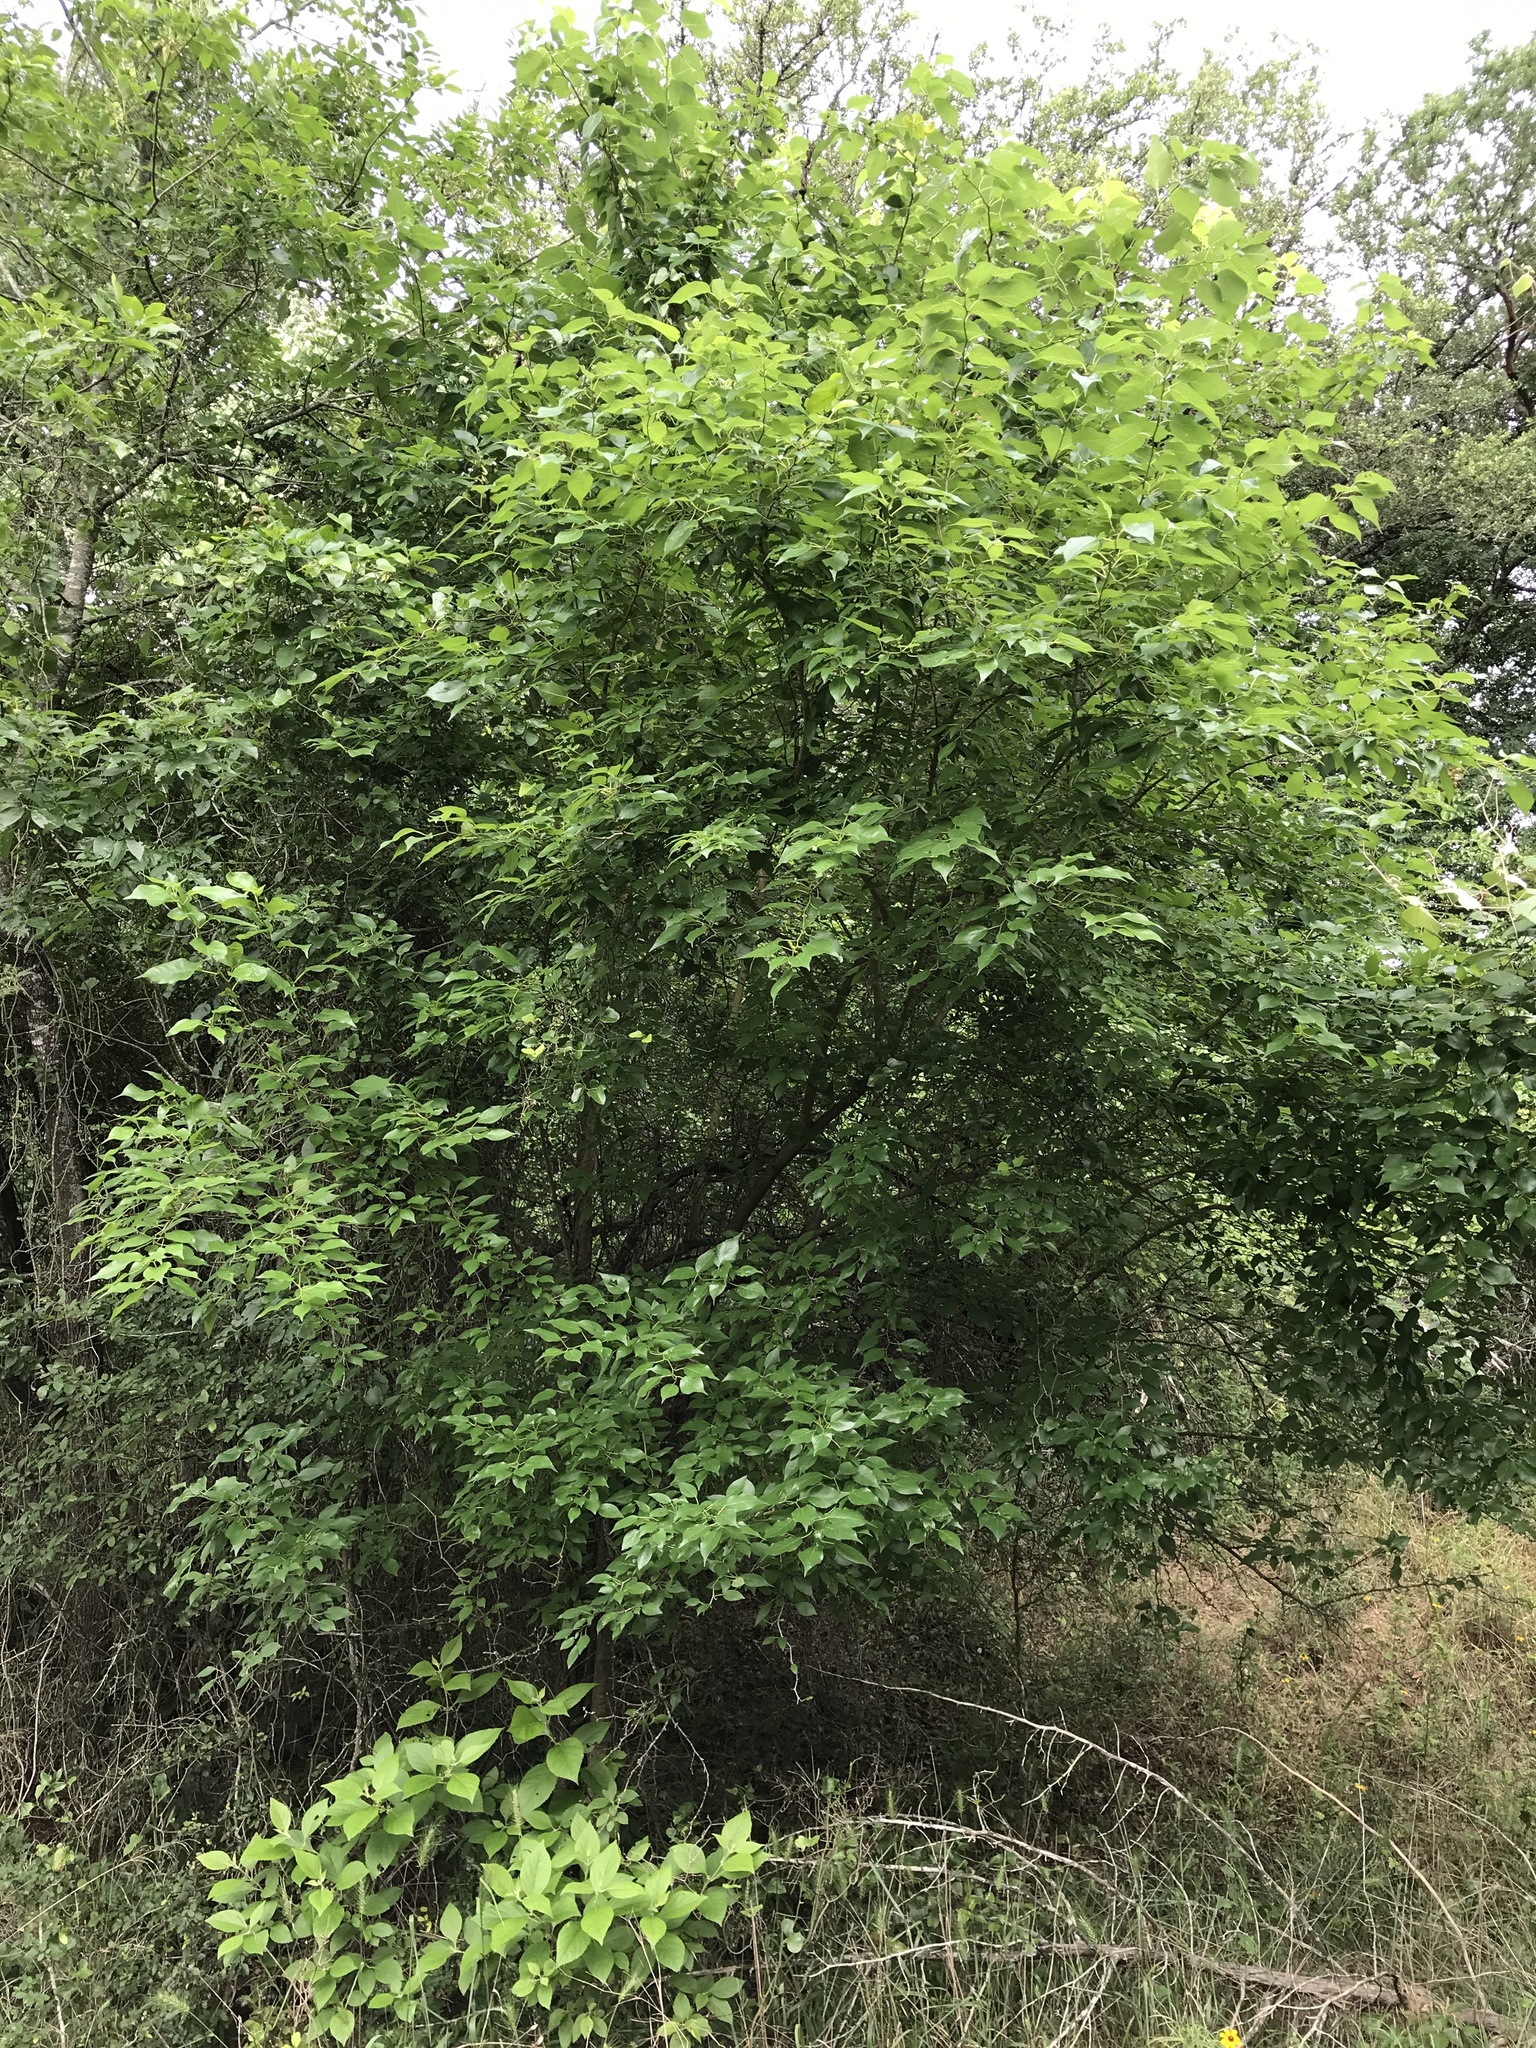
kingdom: Plantae
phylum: Tracheophyta
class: Magnoliopsida
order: Rosales
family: Moraceae
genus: Maclura
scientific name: Maclura pomifera
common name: Osage-orange
